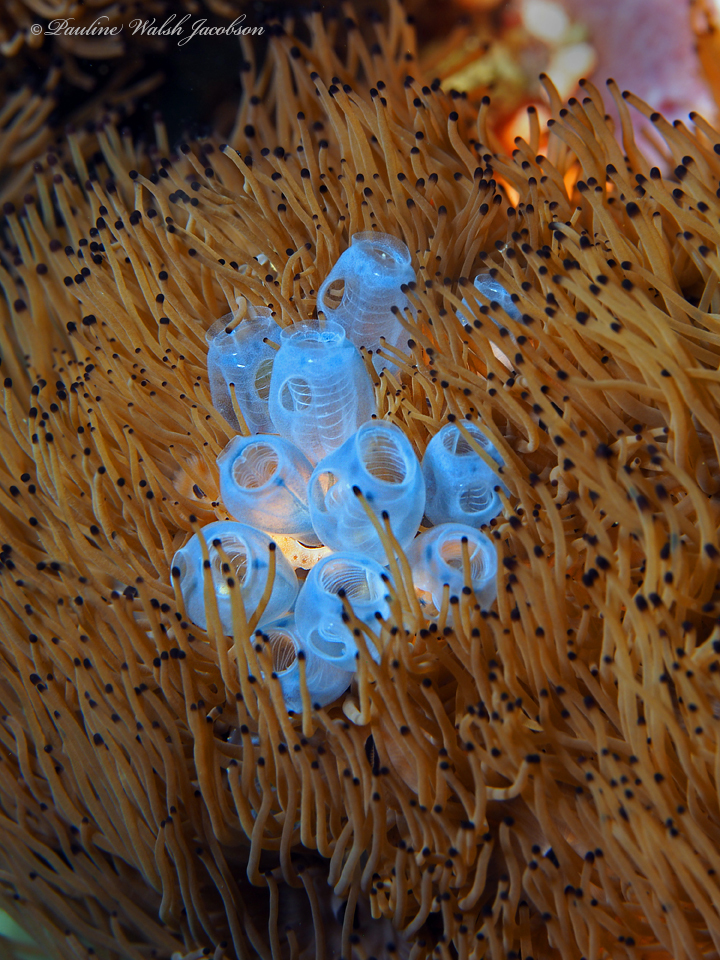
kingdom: Animalia
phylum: Cnidaria
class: Anthozoa
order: Zoantharia
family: Zoanthidae
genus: Acrozoanthus
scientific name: Acrozoanthus australiae
